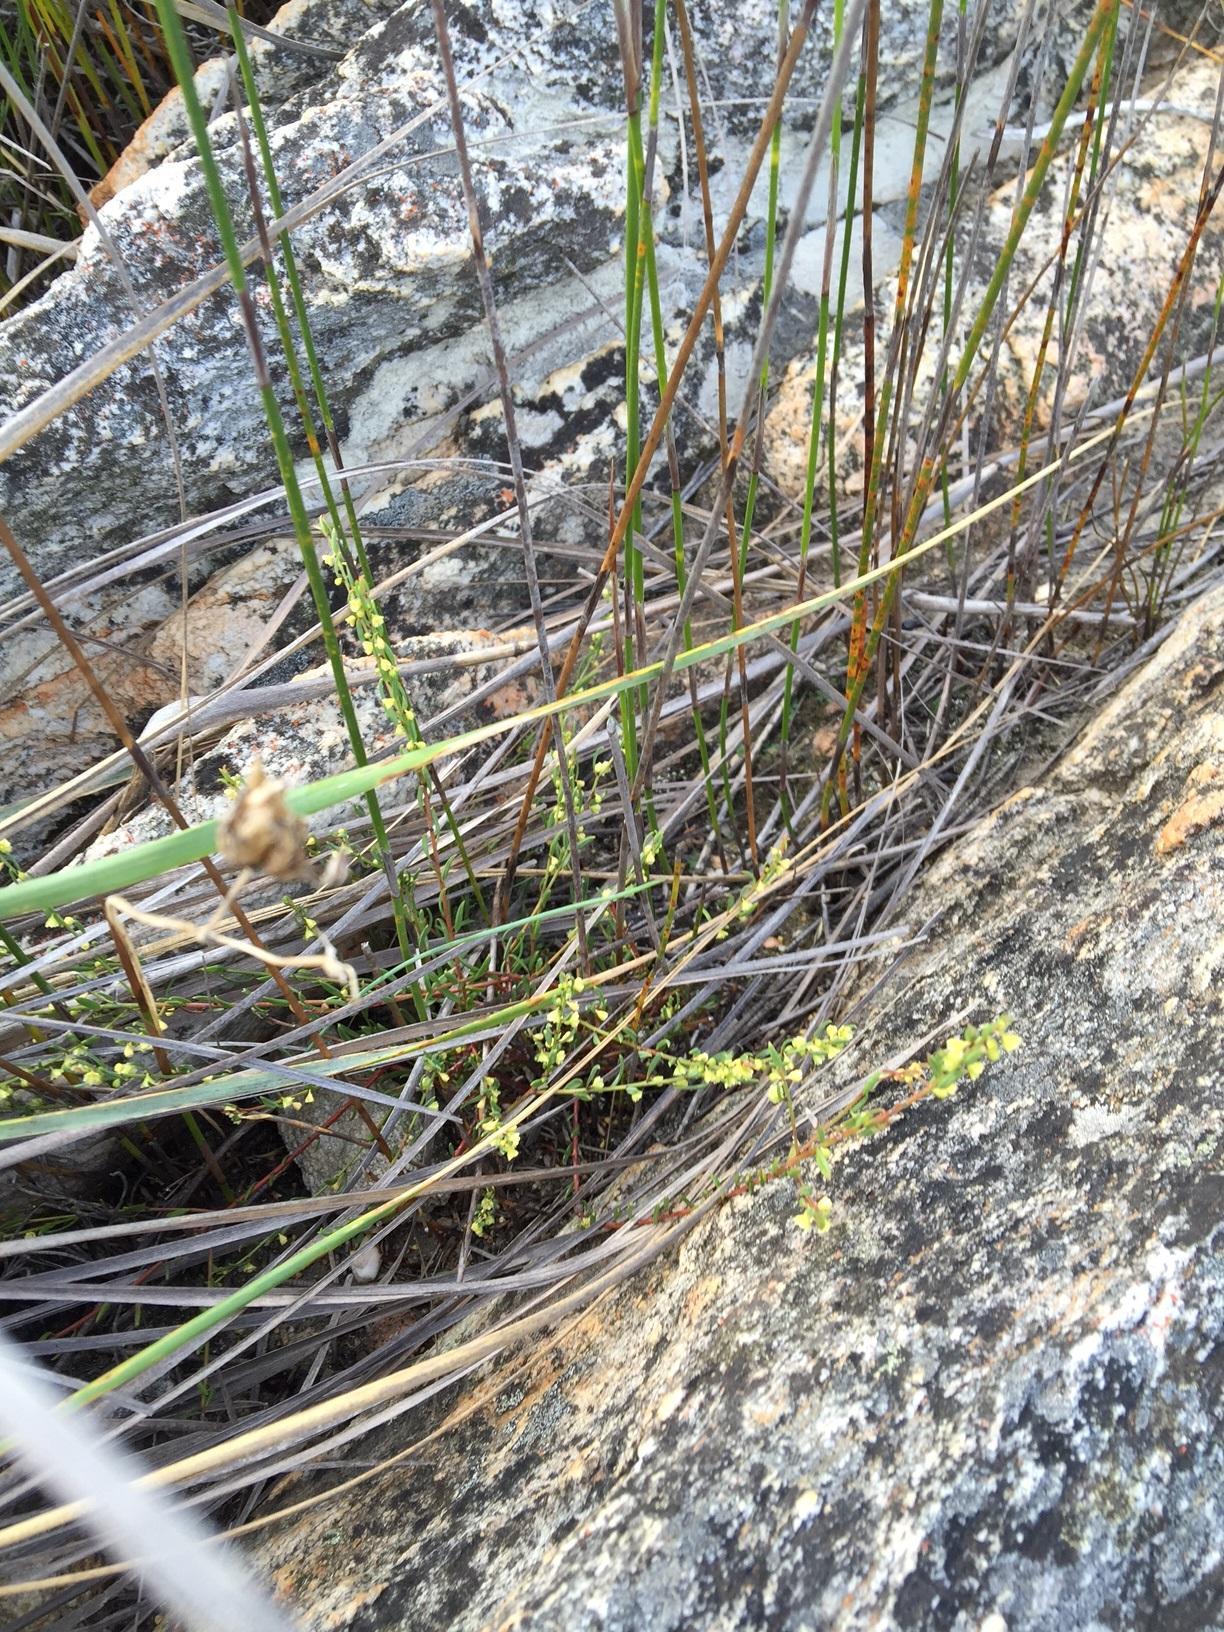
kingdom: Plantae
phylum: Tracheophyta
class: Magnoliopsida
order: Malpighiales
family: Peraceae
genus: Clutia
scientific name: Clutia ericoides
